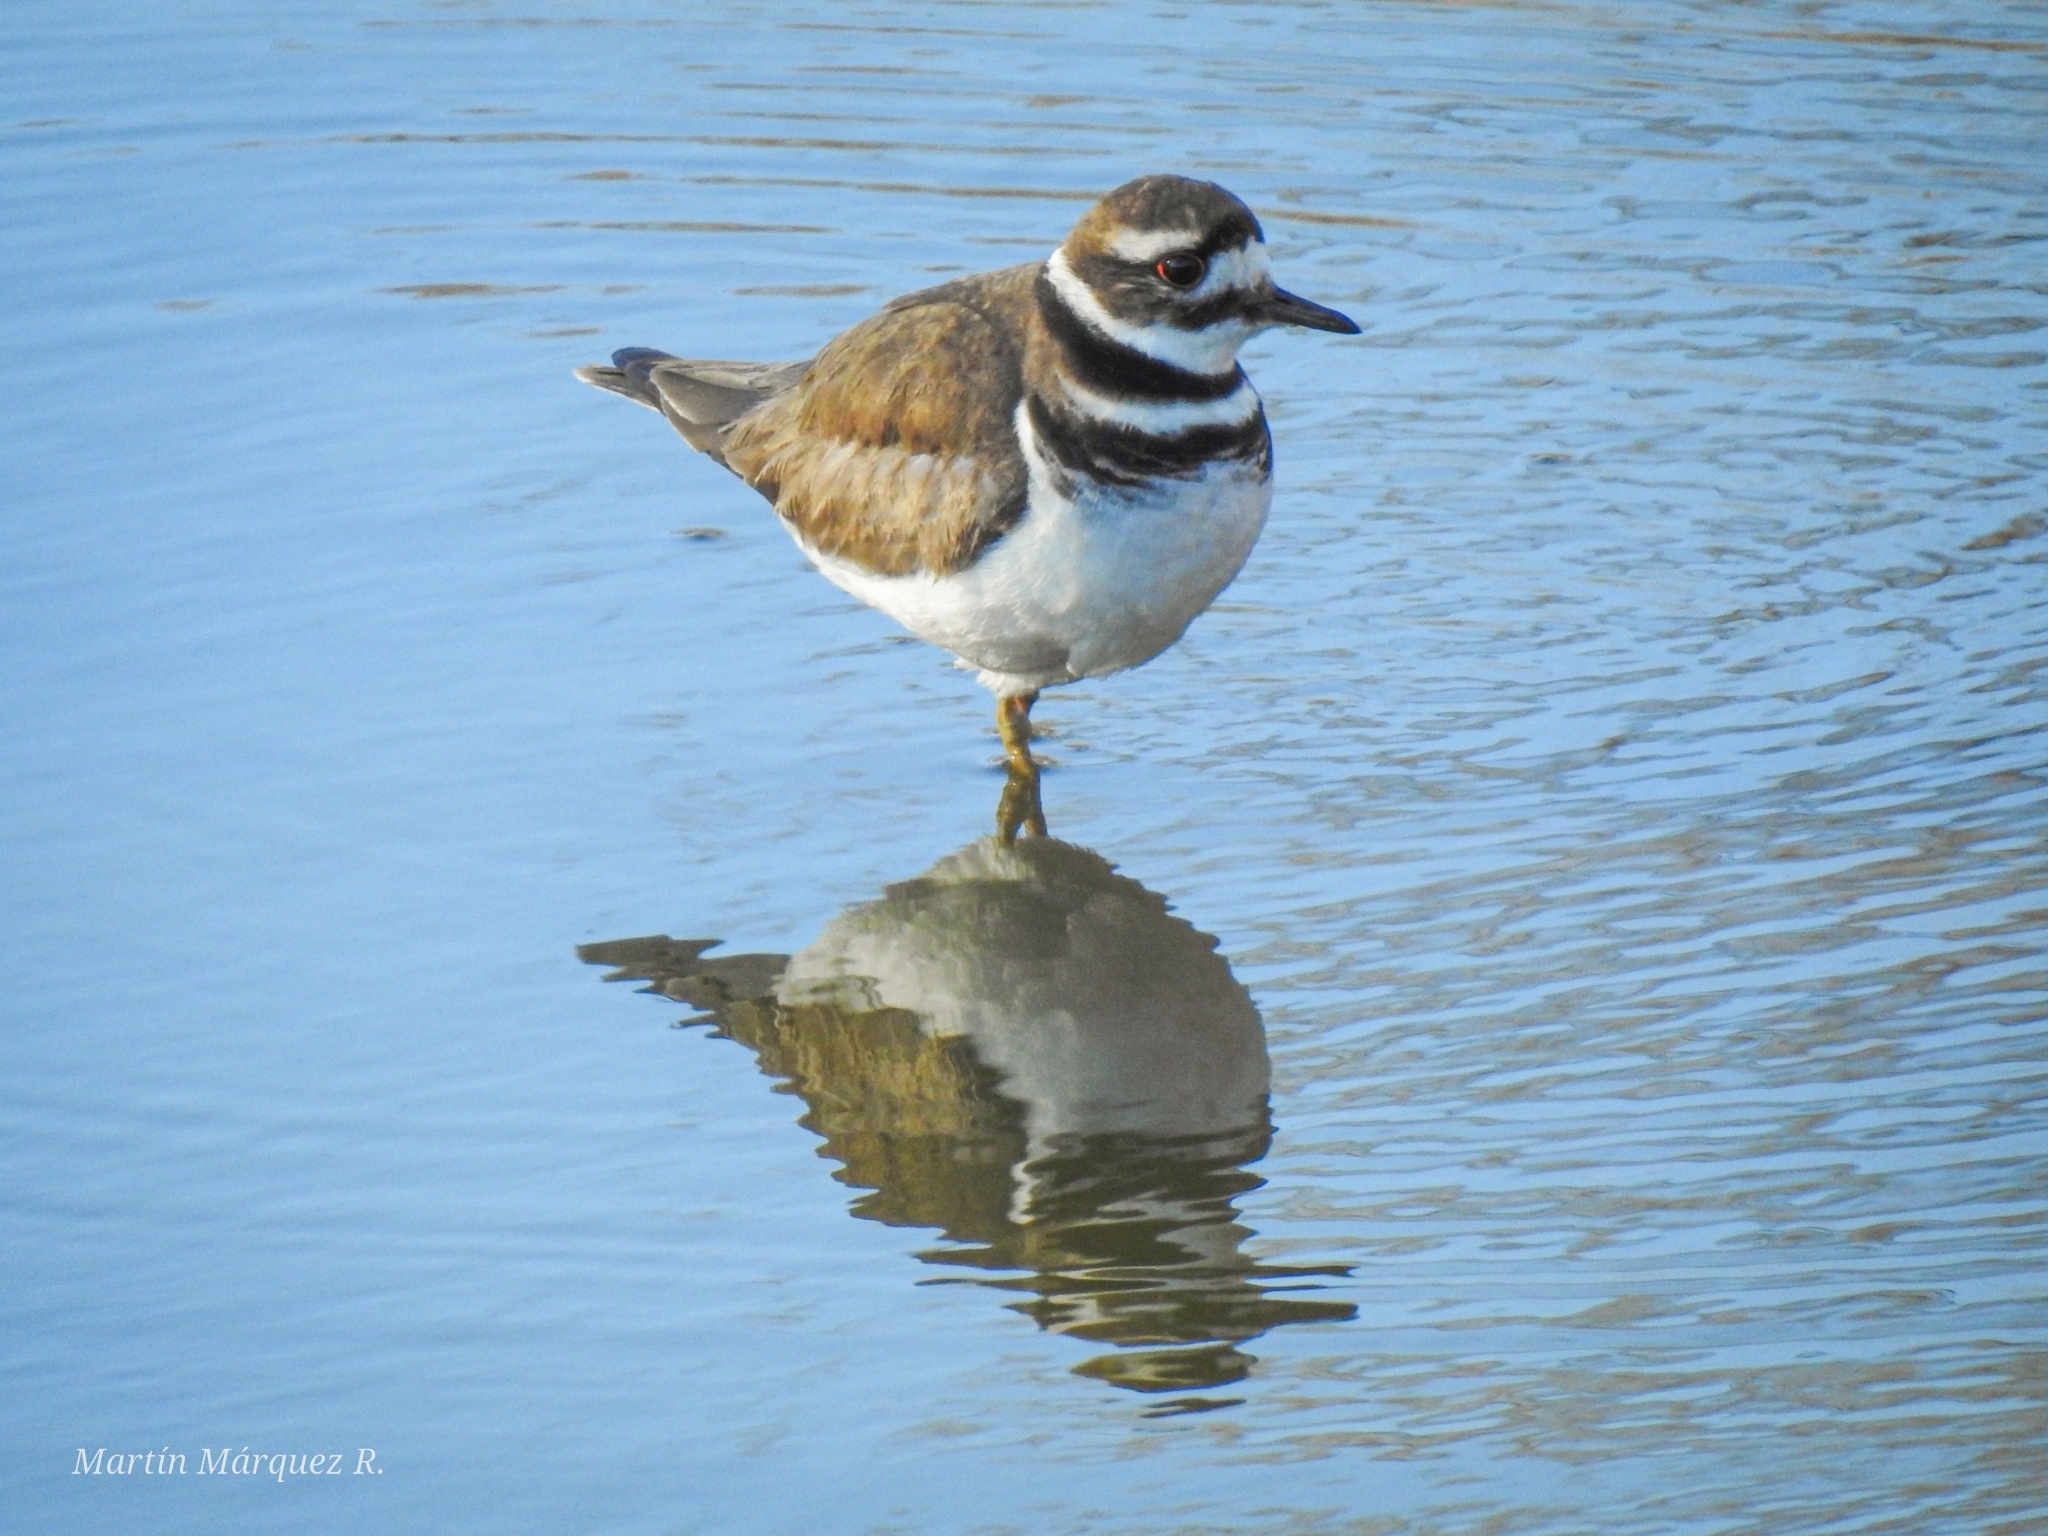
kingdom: Animalia
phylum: Chordata
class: Aves
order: Charadriiformes
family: Charadriidae
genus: Charadrius
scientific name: Charadrius vociferus
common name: Killdeer
